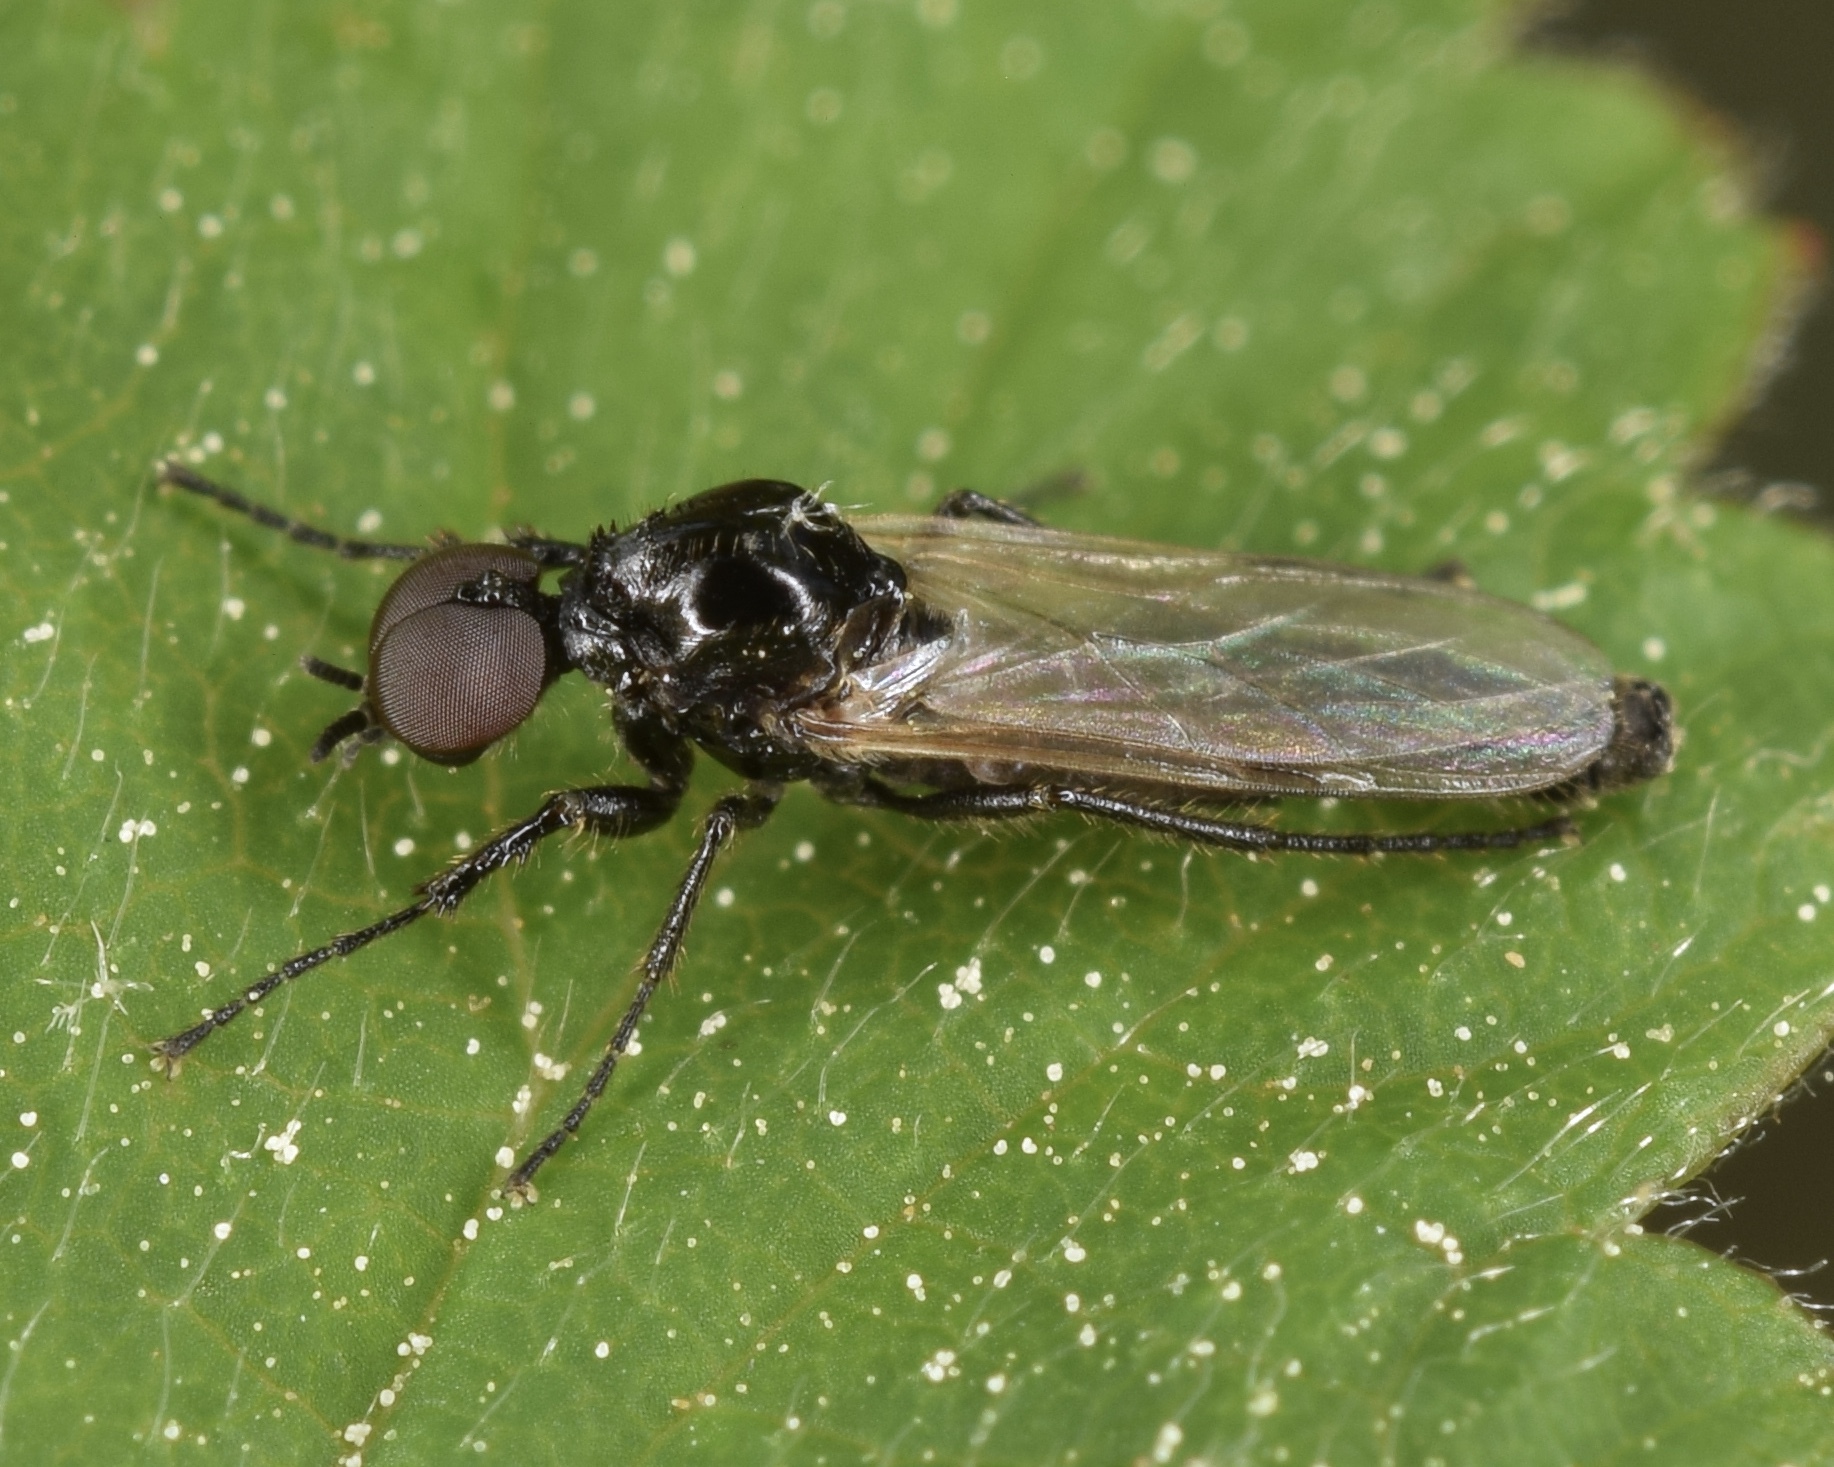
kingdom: Animalia
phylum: Arthropoda
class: Insecta
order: Diptera
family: Bibionidae
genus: Dilophus
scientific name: Dilophus
